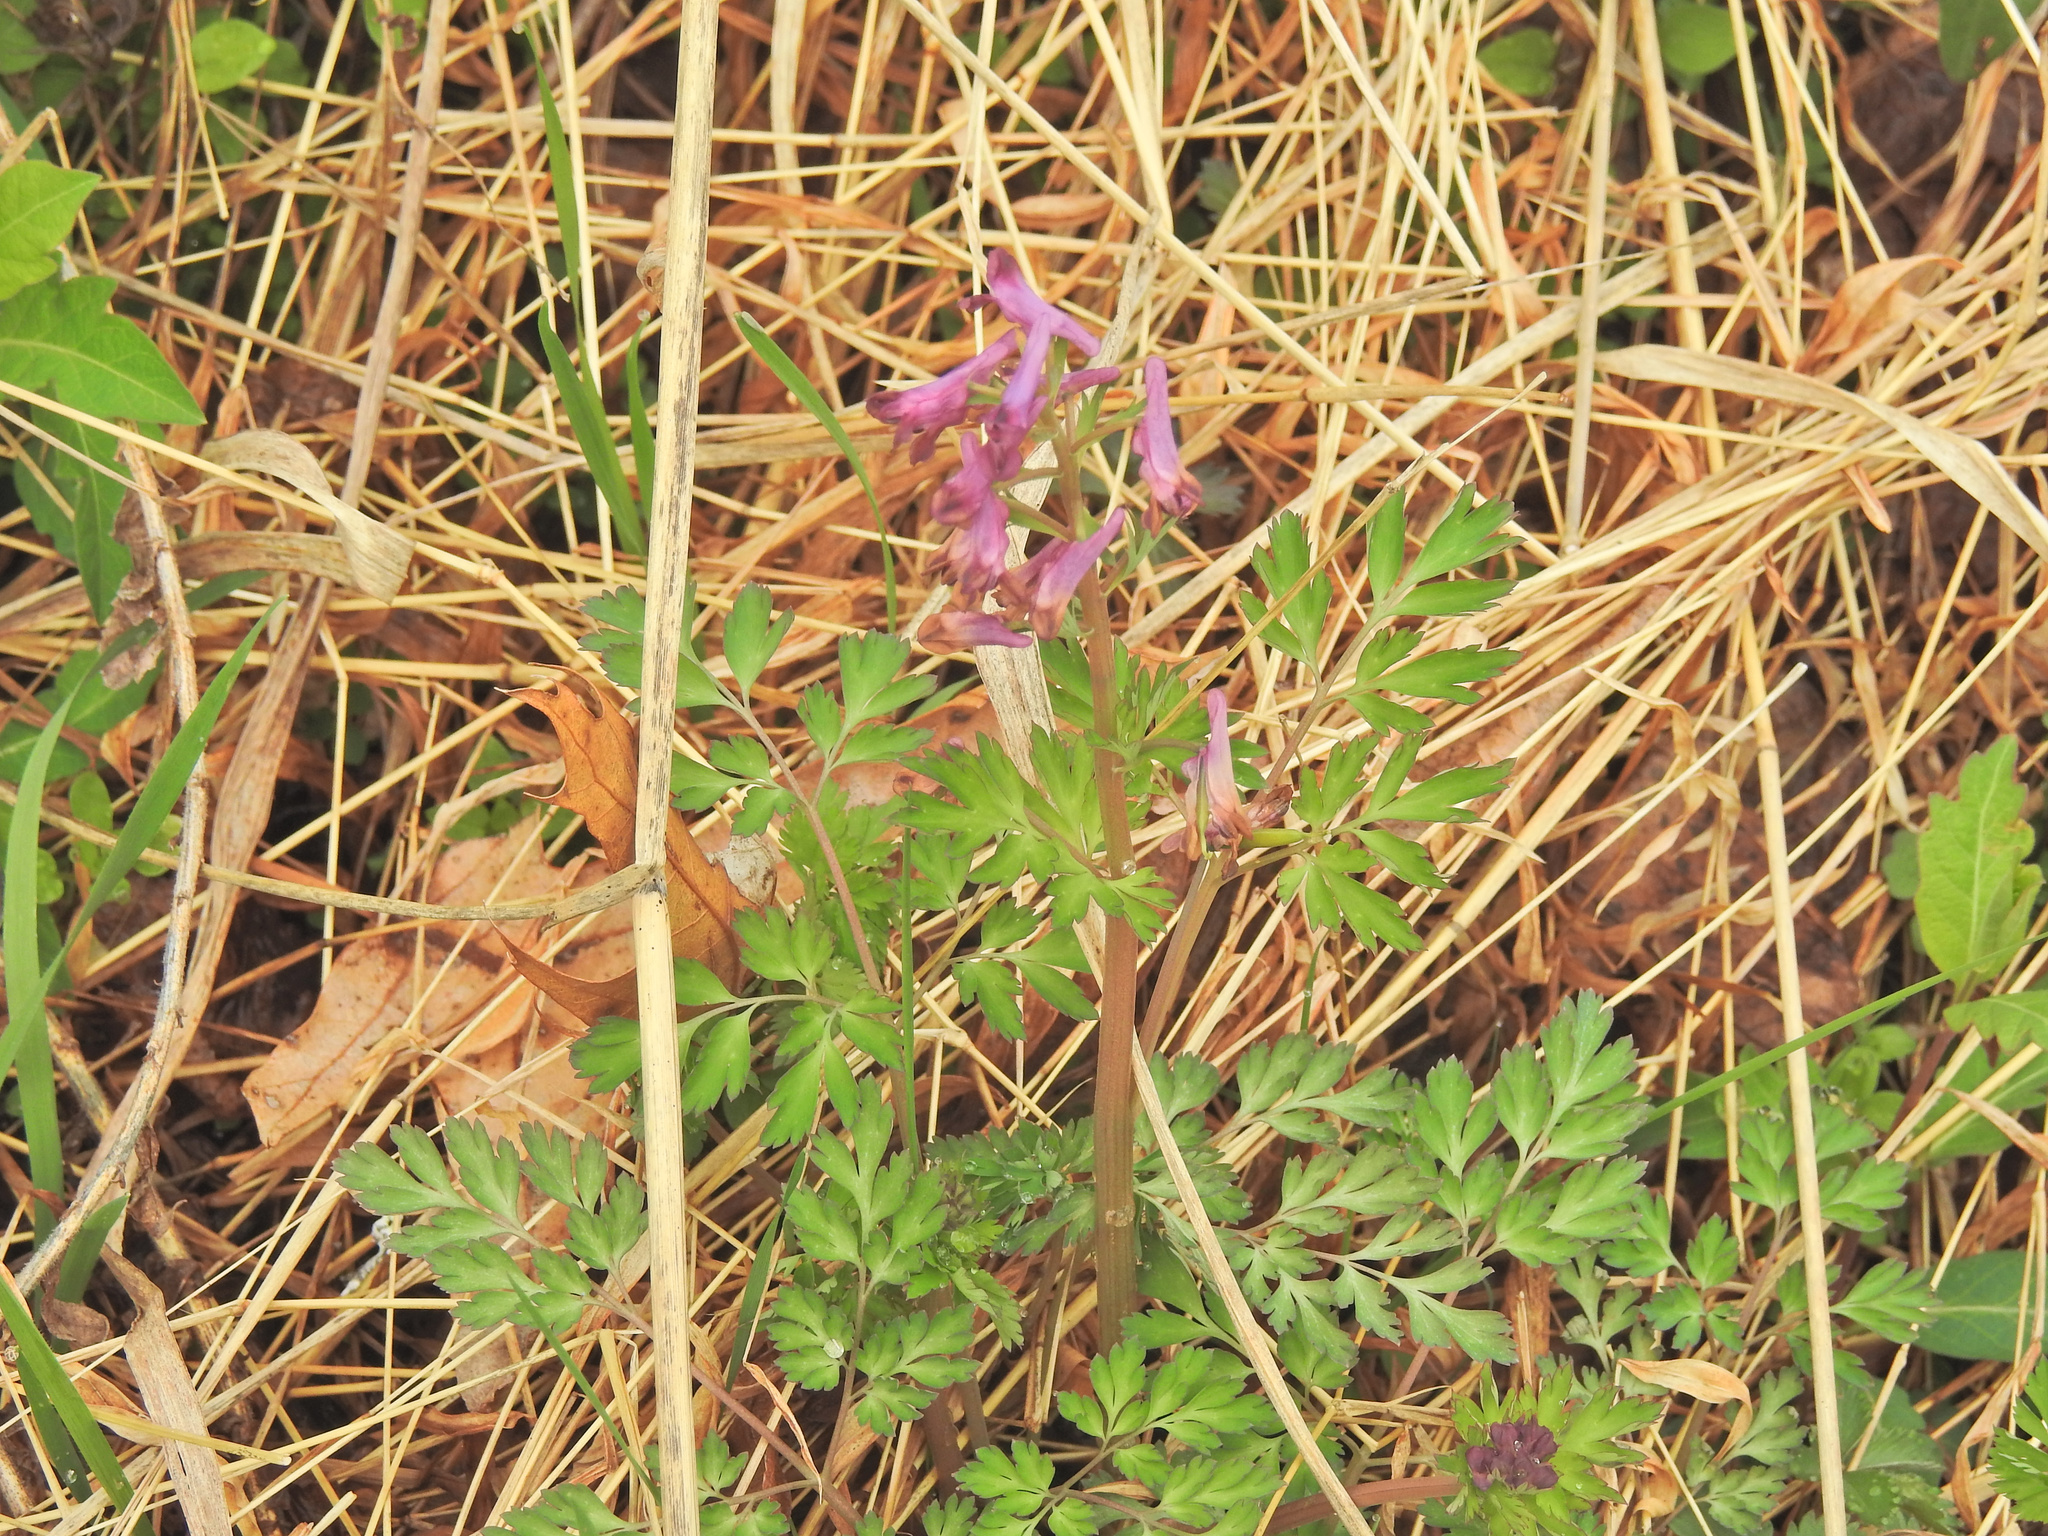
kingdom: Plantae
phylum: Tracheophyta
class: Magnoliopsida
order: Ranunculales
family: Papaveraceae
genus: Corydalis
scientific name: Corydalis incisa
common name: Incised fumewort
